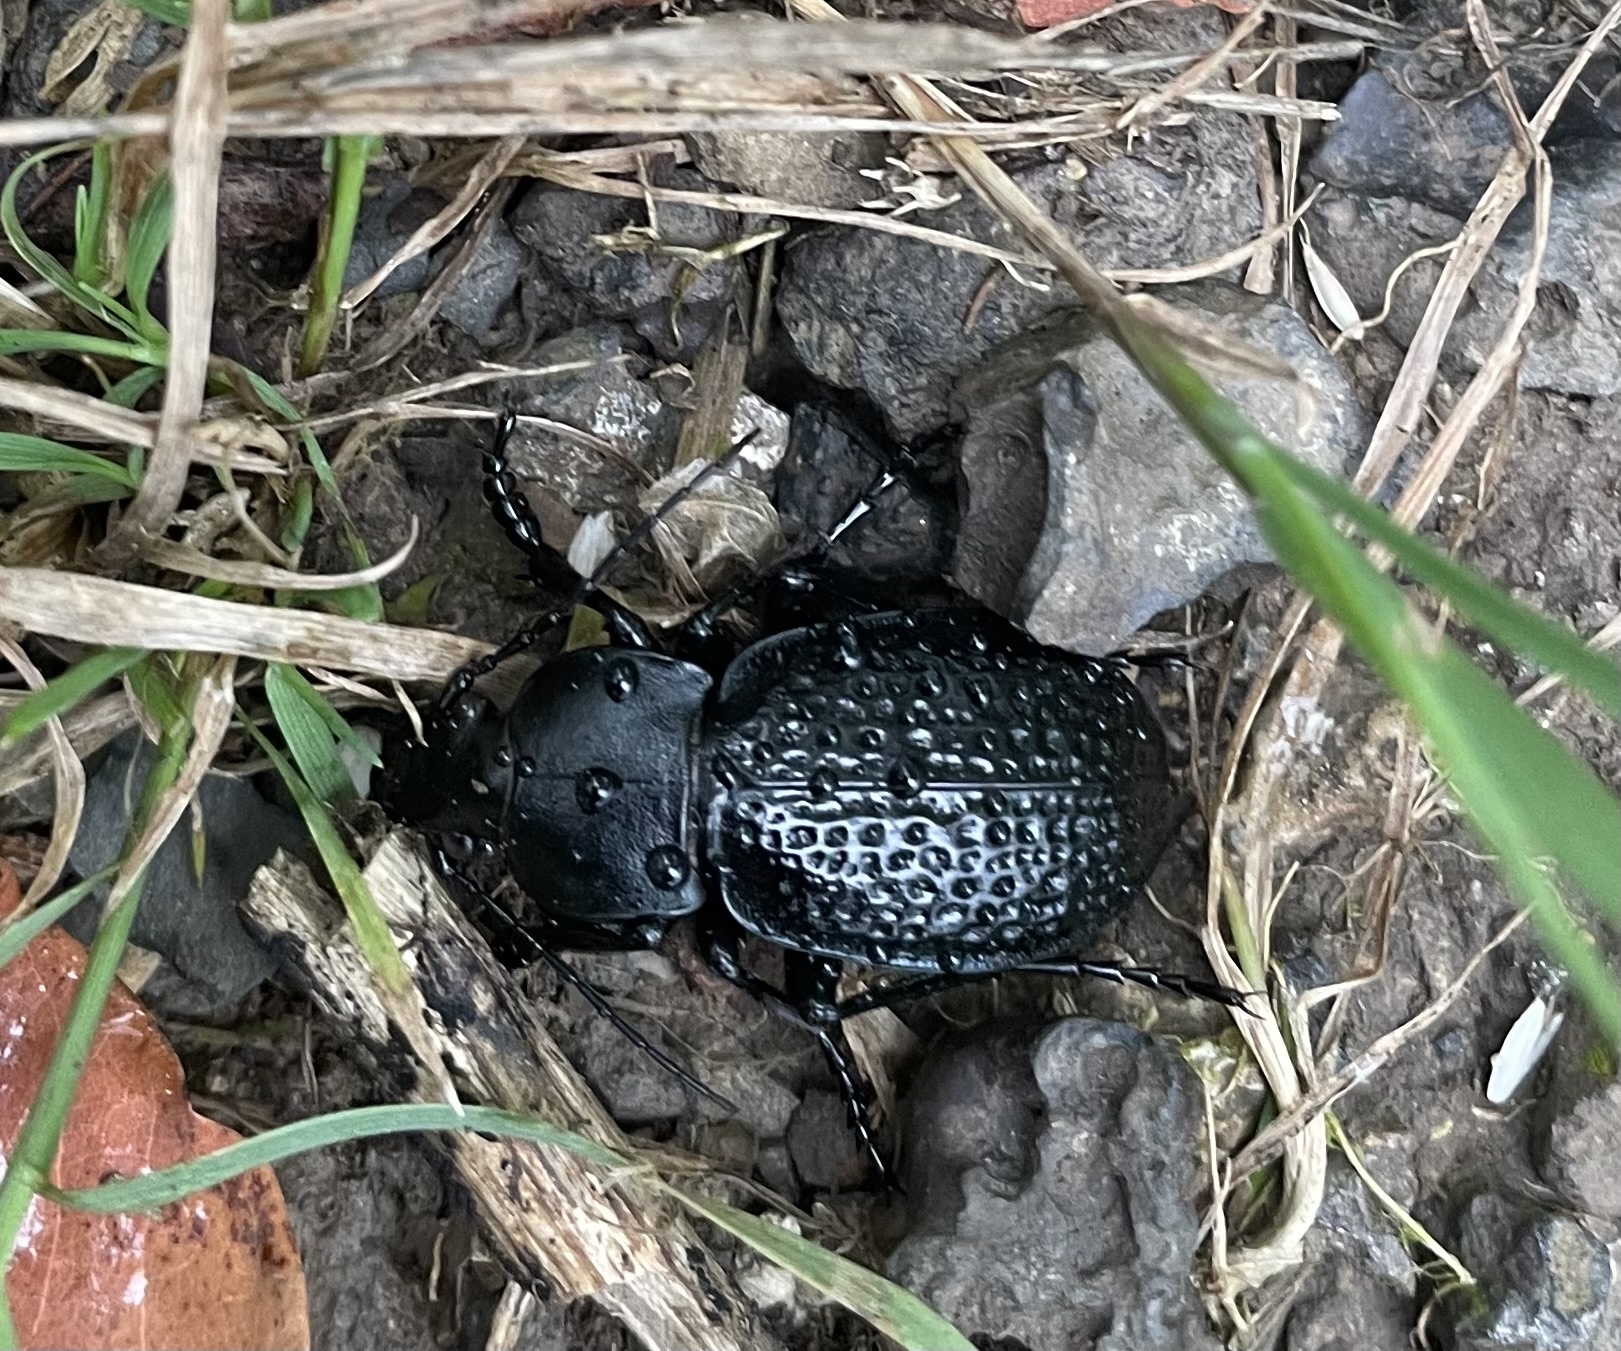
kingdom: Animalia
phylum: Arthropoda
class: Insecta
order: Coleoptera
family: Carabidae
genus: Carabus
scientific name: Carabus cavernosus
